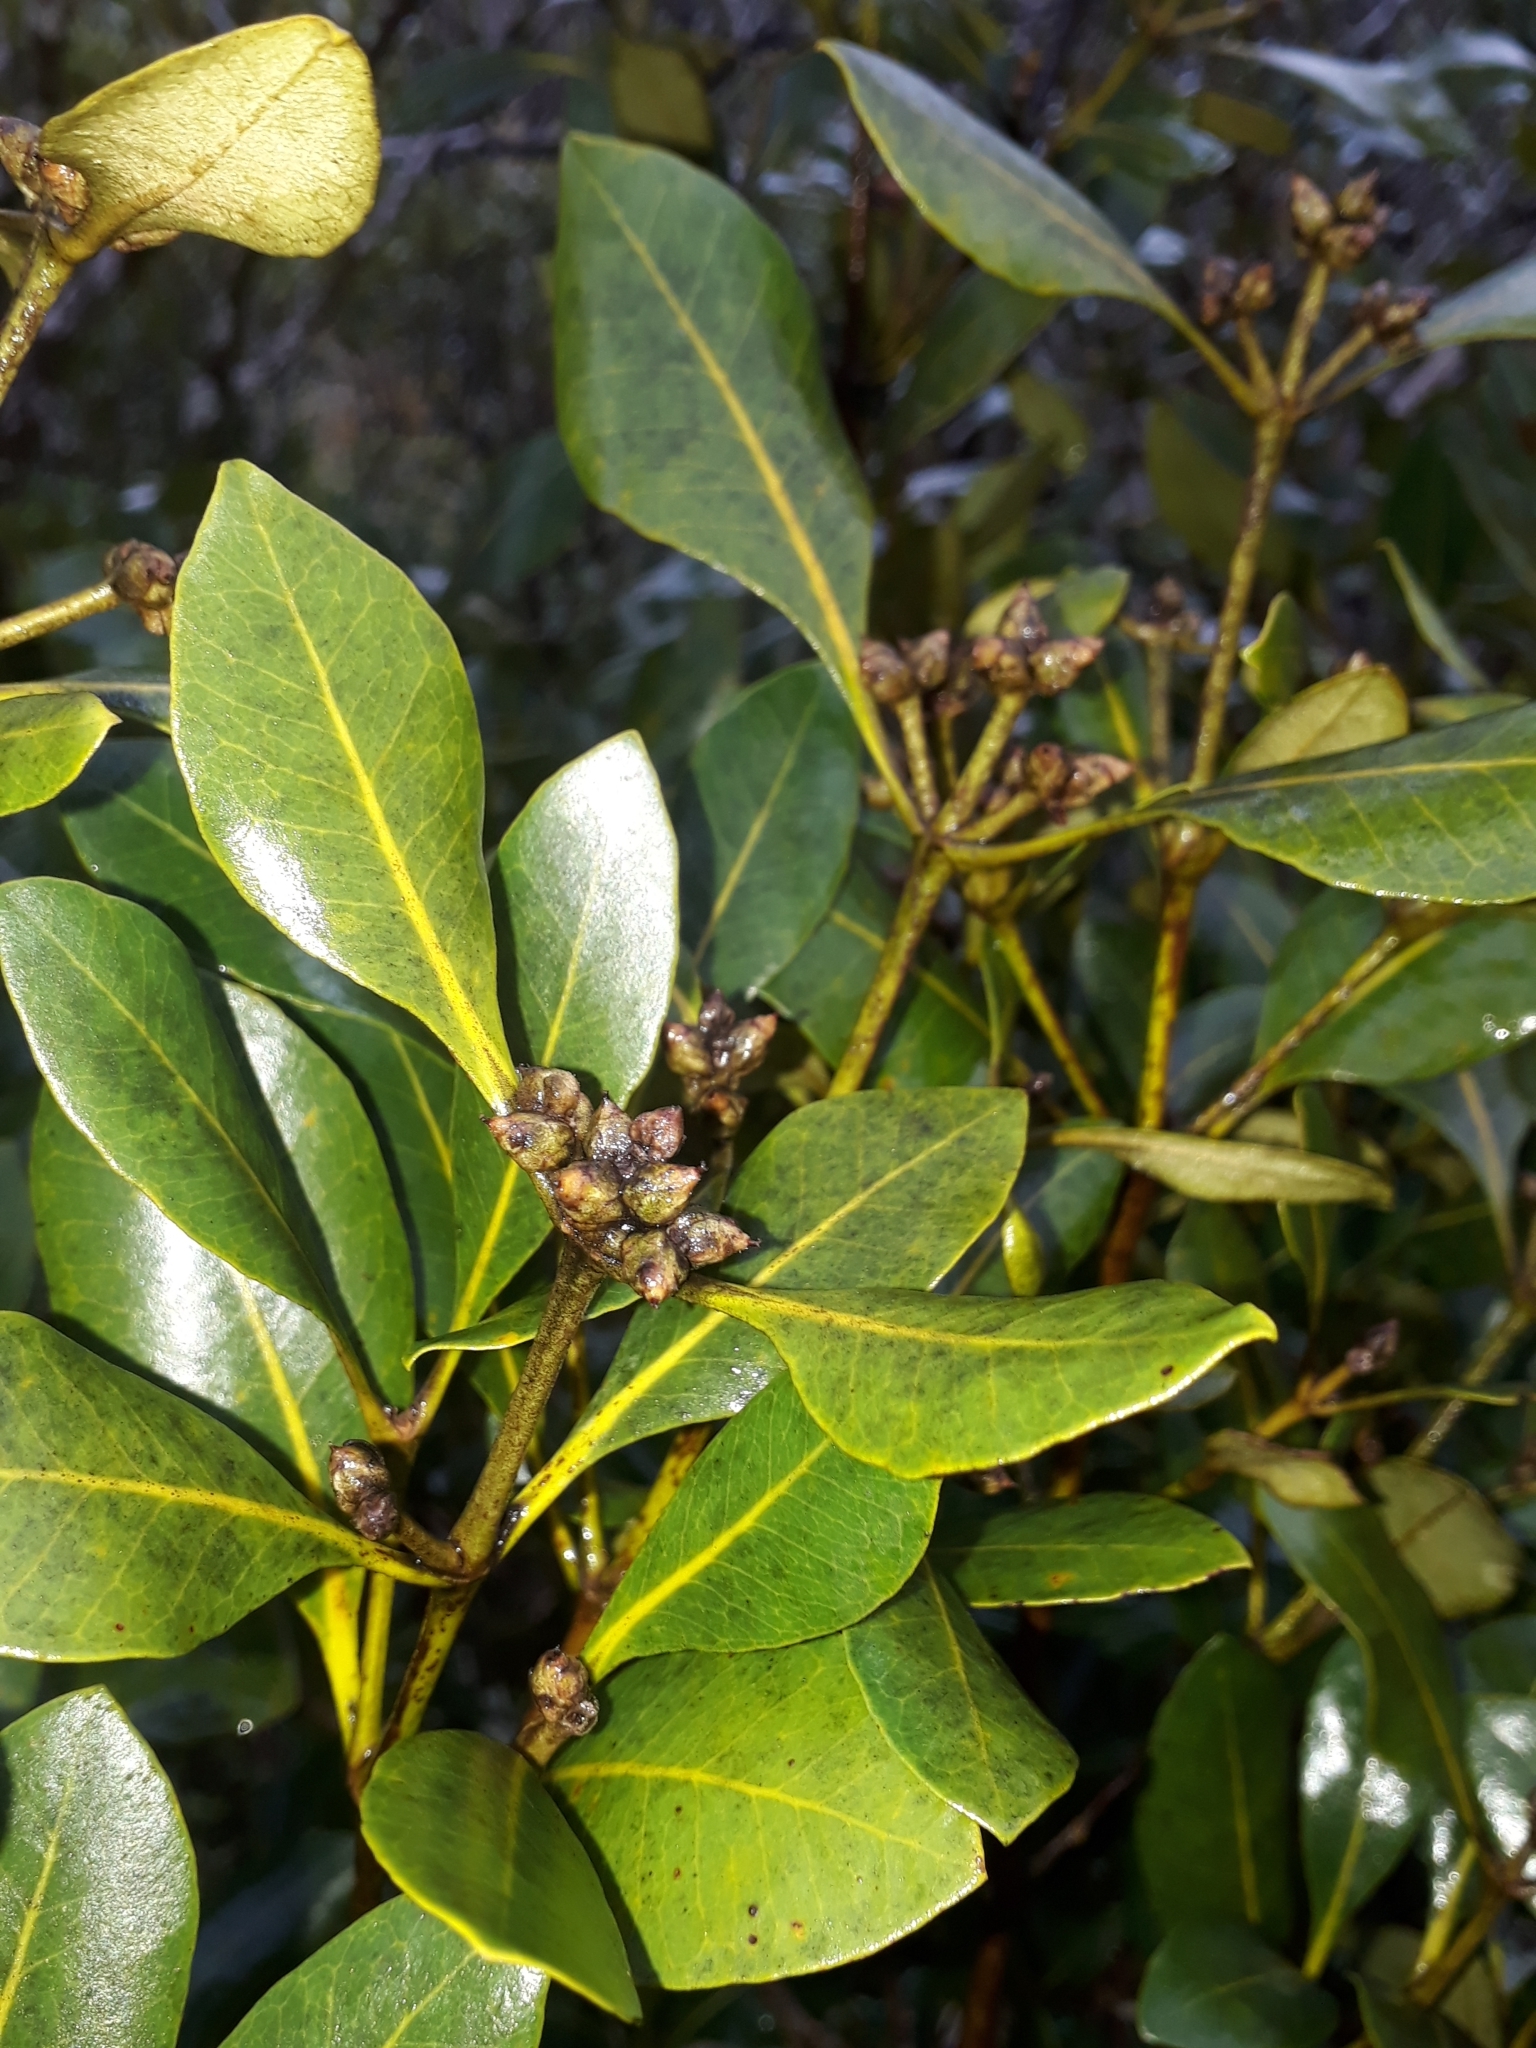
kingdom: Plantae
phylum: Tracheophyta
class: Magnoliopsida
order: Lamiales
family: Acanthaceae
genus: Avicennia
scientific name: Avicennia marina
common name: Gray mangrove
